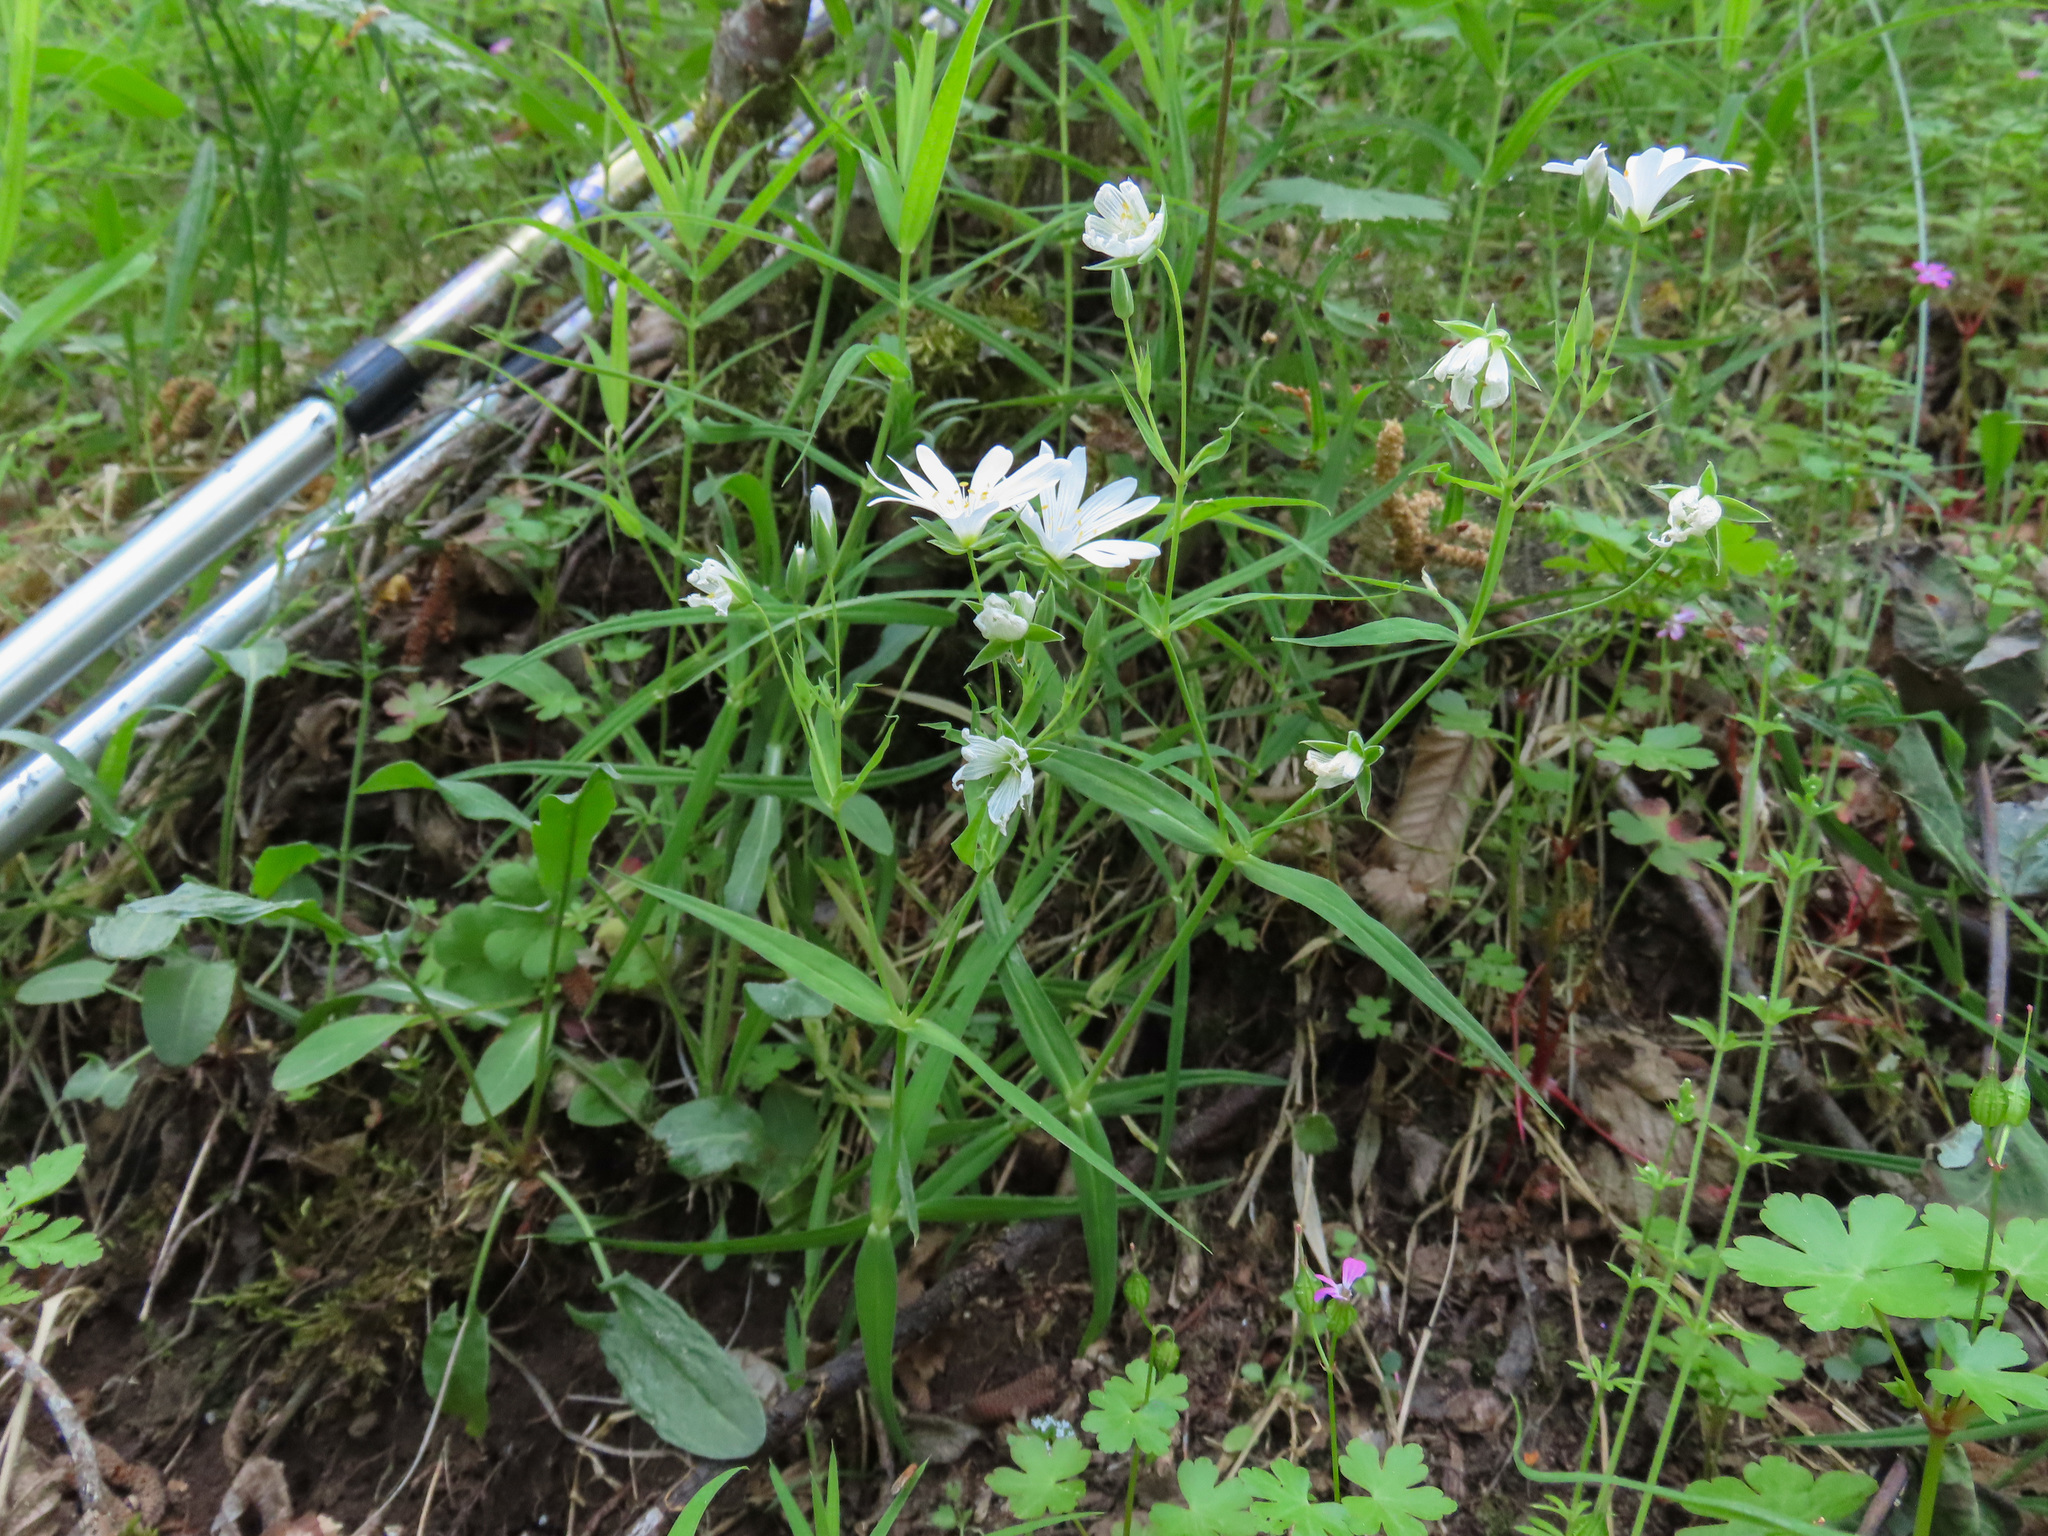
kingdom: Plantae
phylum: Tracheophyta
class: Magnoliopsida
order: Caryophyllales
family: Caryophyllaceae
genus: Rabelera
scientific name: Rabelera holostea
